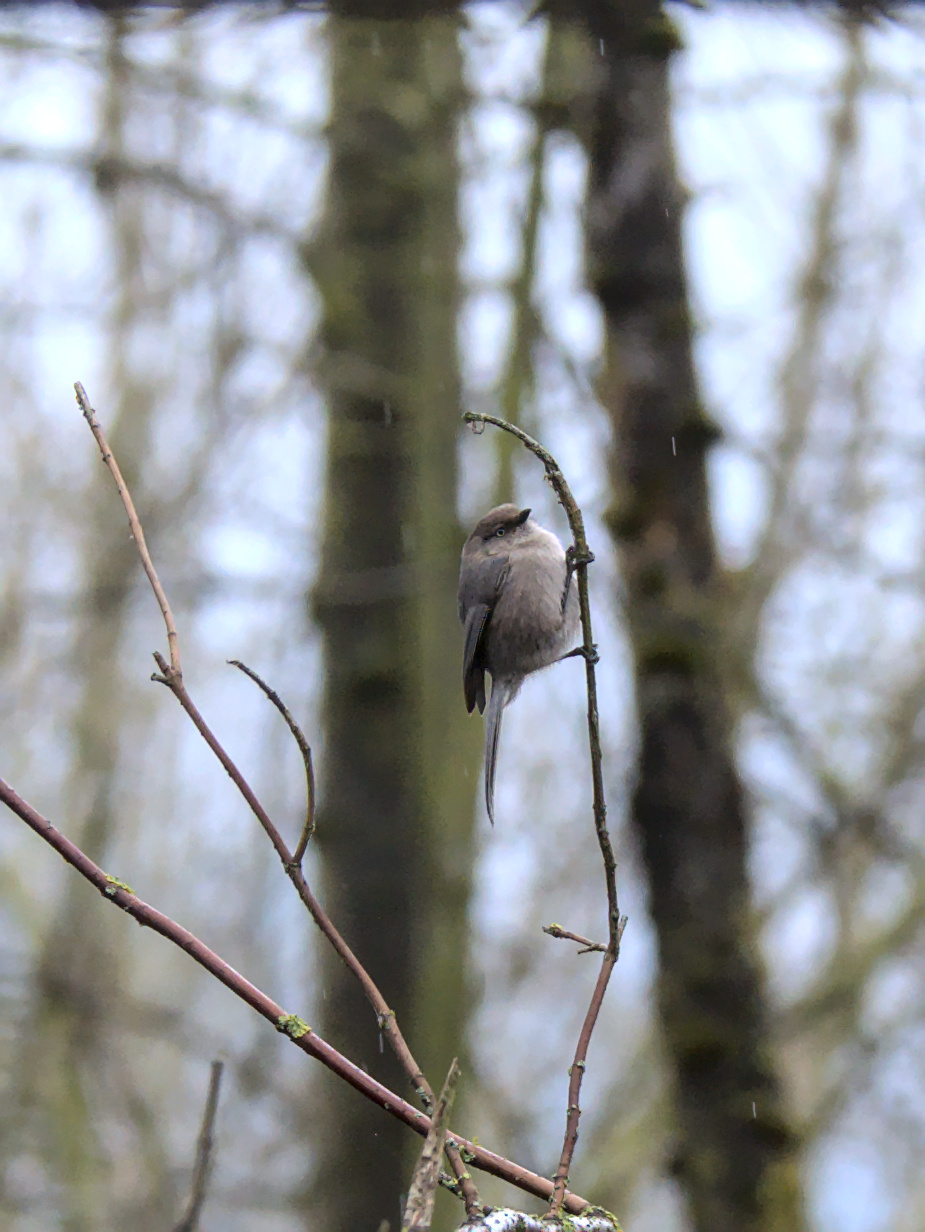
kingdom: Animalia
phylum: Chordata
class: Aves
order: Passeriformes
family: Aegithalidae
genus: Psaltriparus
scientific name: Psaltriparus minimus
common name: American bushtit
